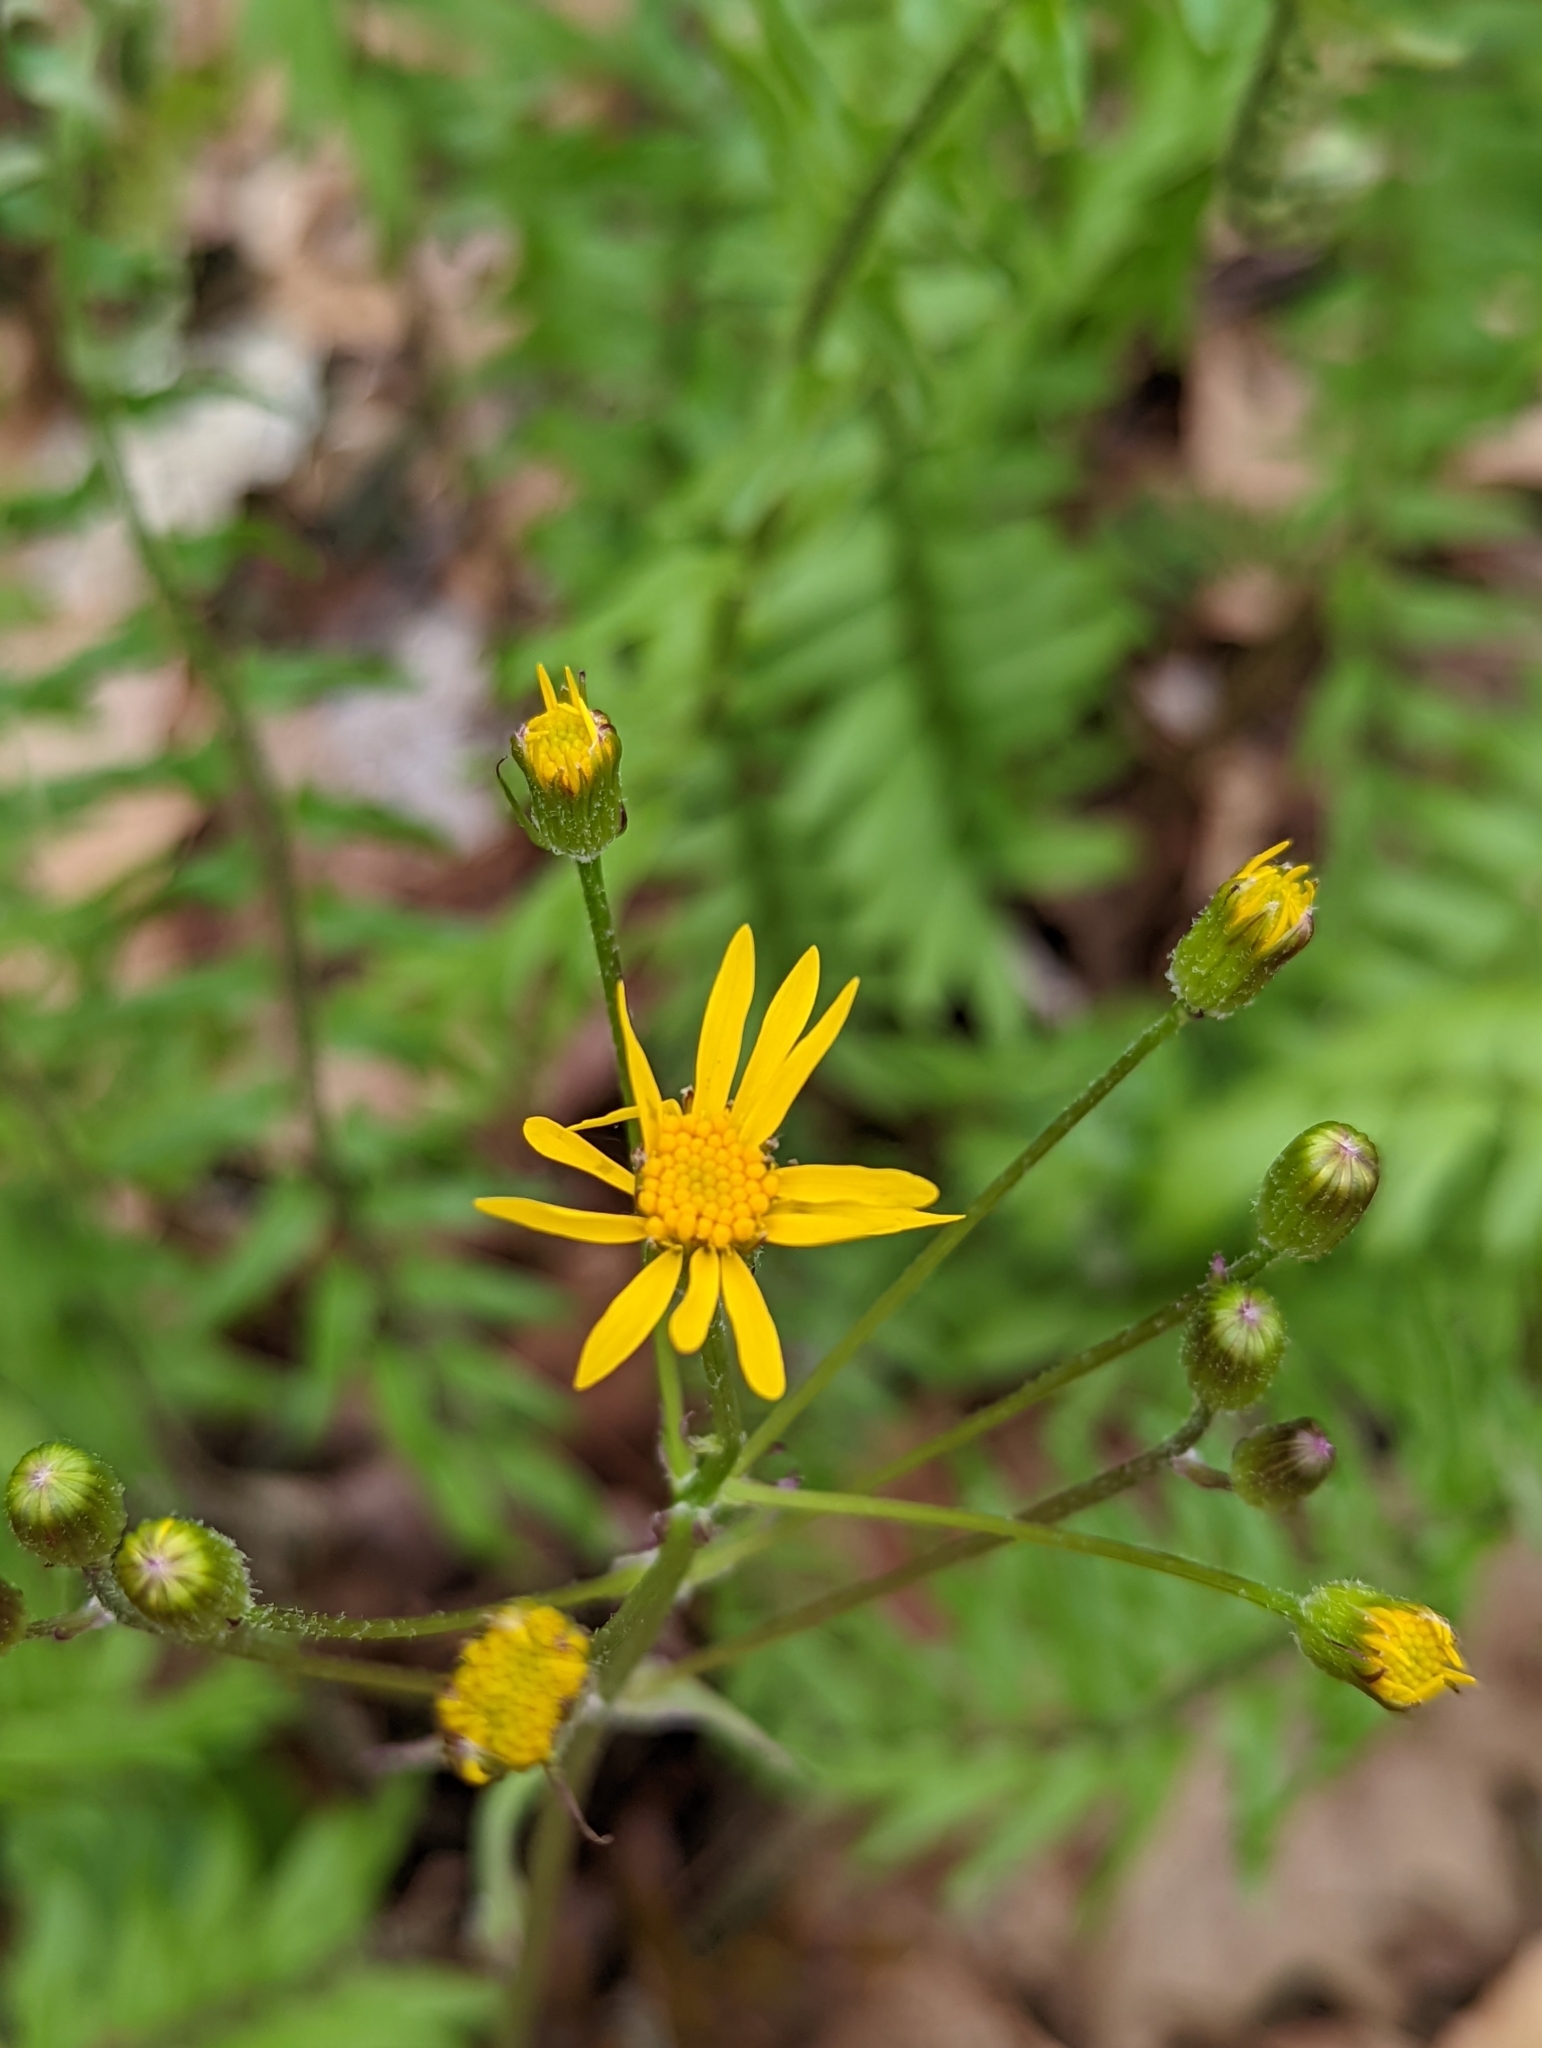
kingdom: Plantae
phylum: Tracheophyta
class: Magnoliopsida
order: Asterales
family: Asteraceae
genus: Packera
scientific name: Packera aurea
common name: Golden groundsel
